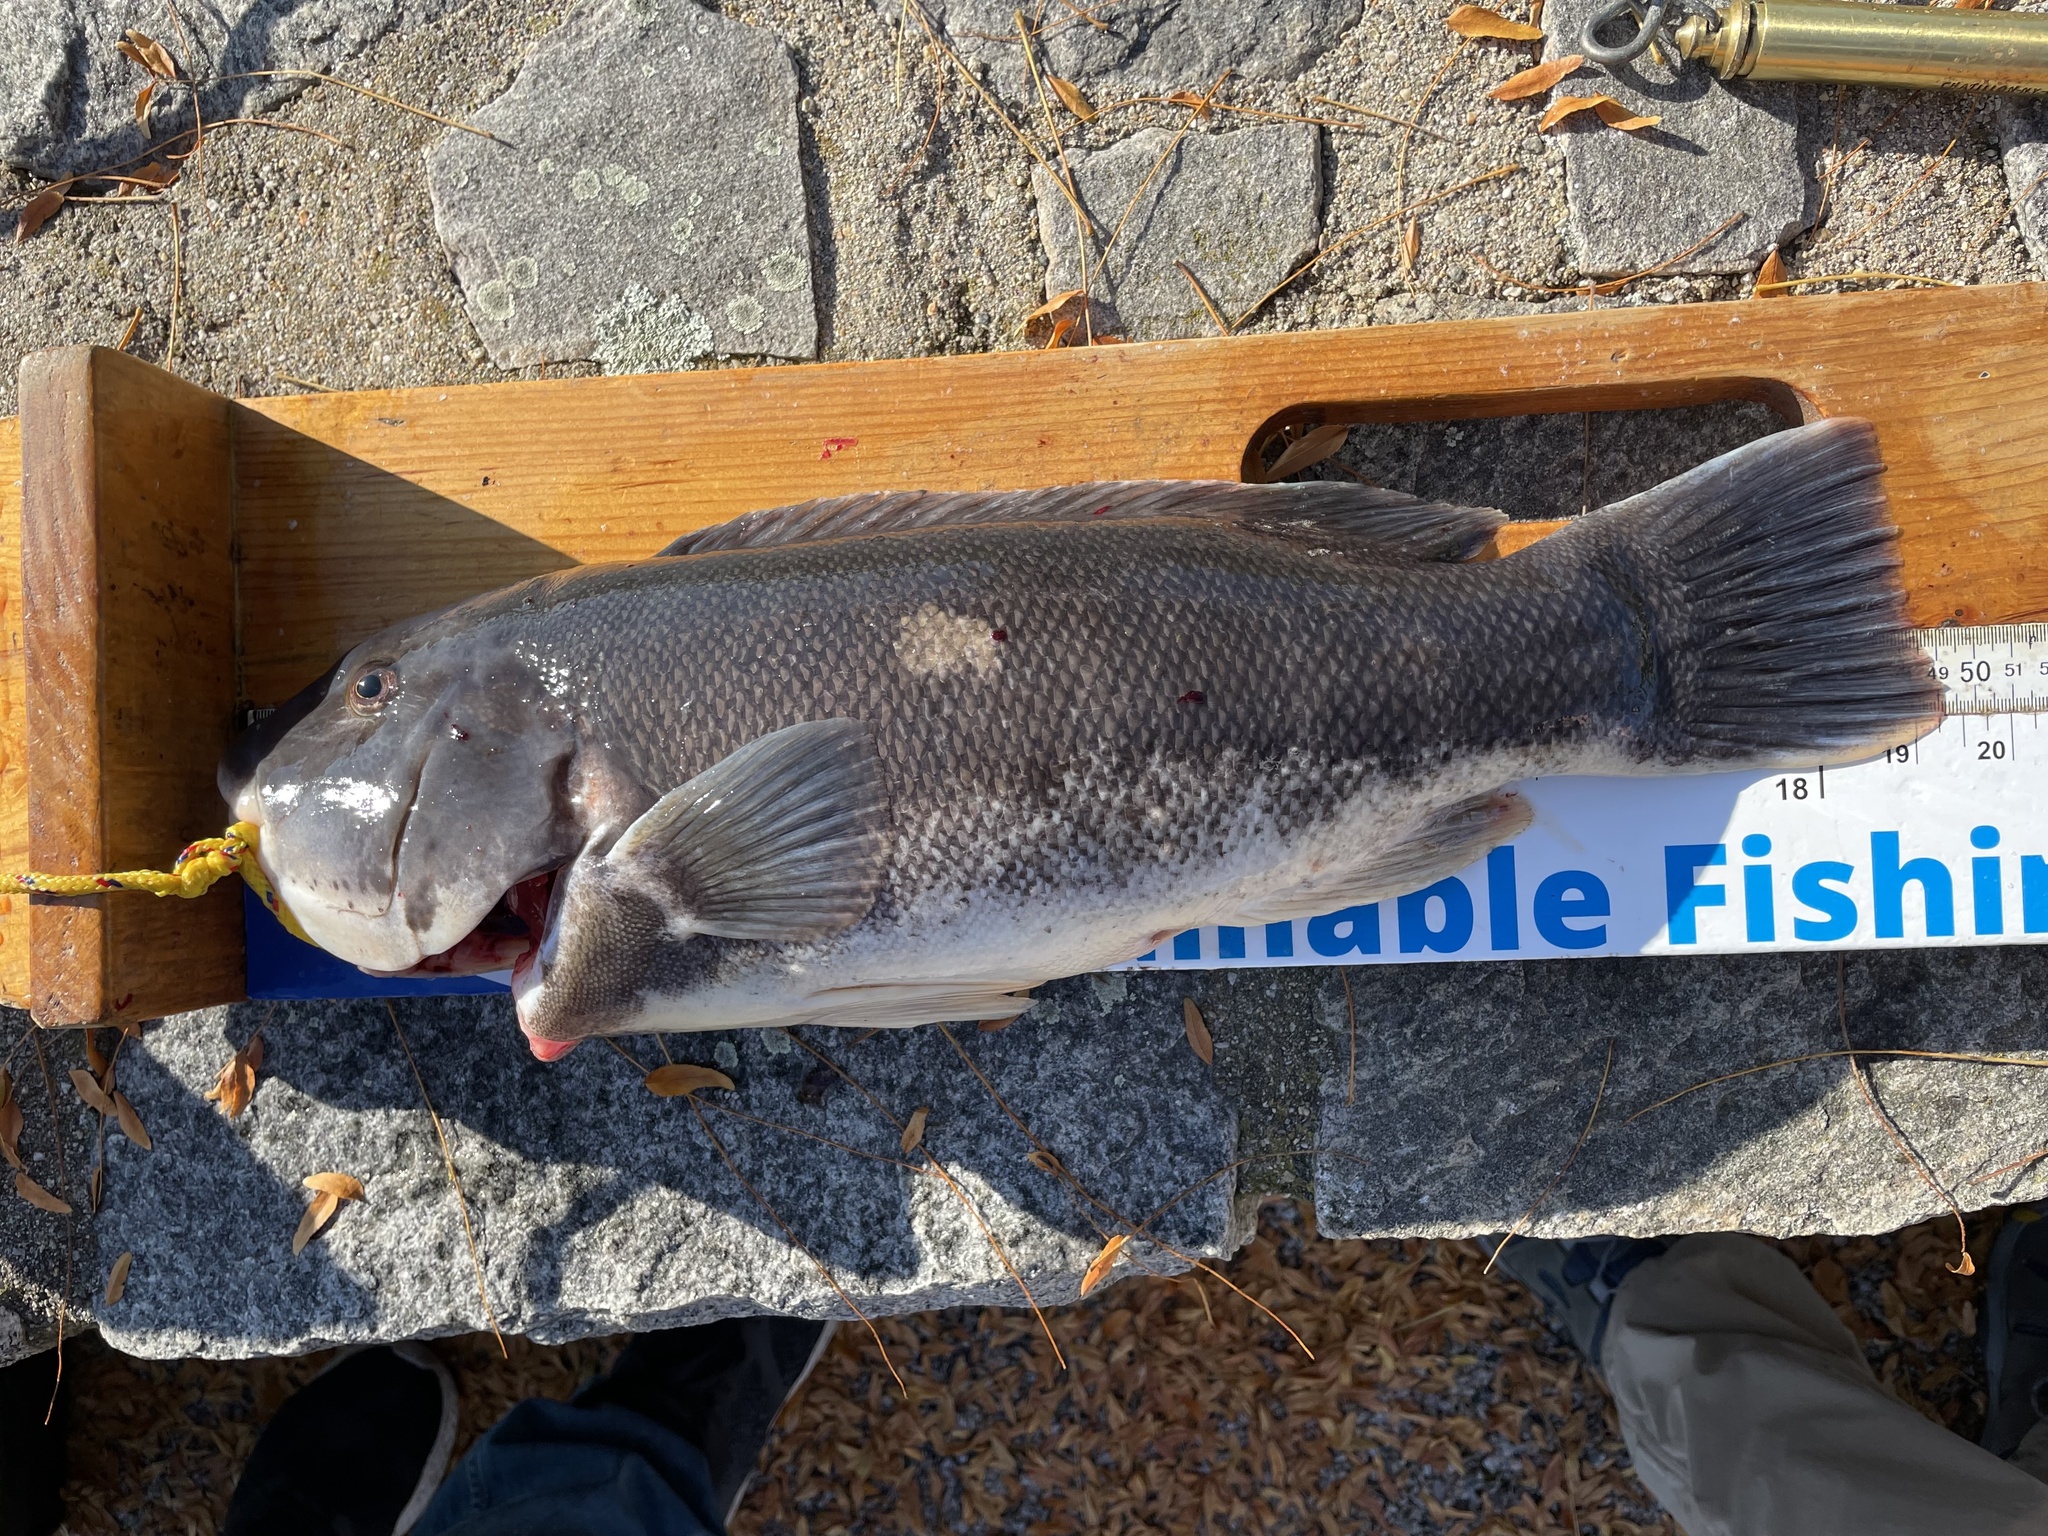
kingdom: Animalia
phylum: Chordata
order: Perciformes
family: Labridae
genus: Tautoga
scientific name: Tautoga onitis
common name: Tautog
